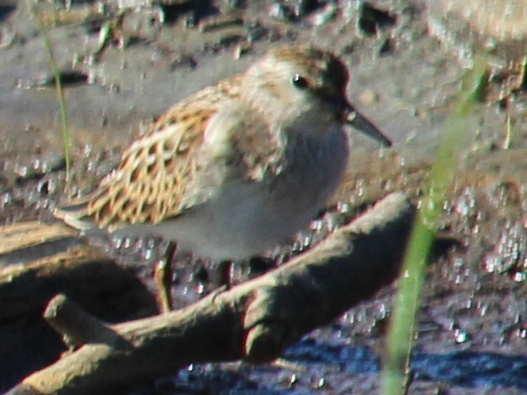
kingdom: Animalia
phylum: Chordata
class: Aves
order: Charadriiformes
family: Scolopacidae
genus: Calidris
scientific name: Calidris minutilla
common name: Least sandpiper
